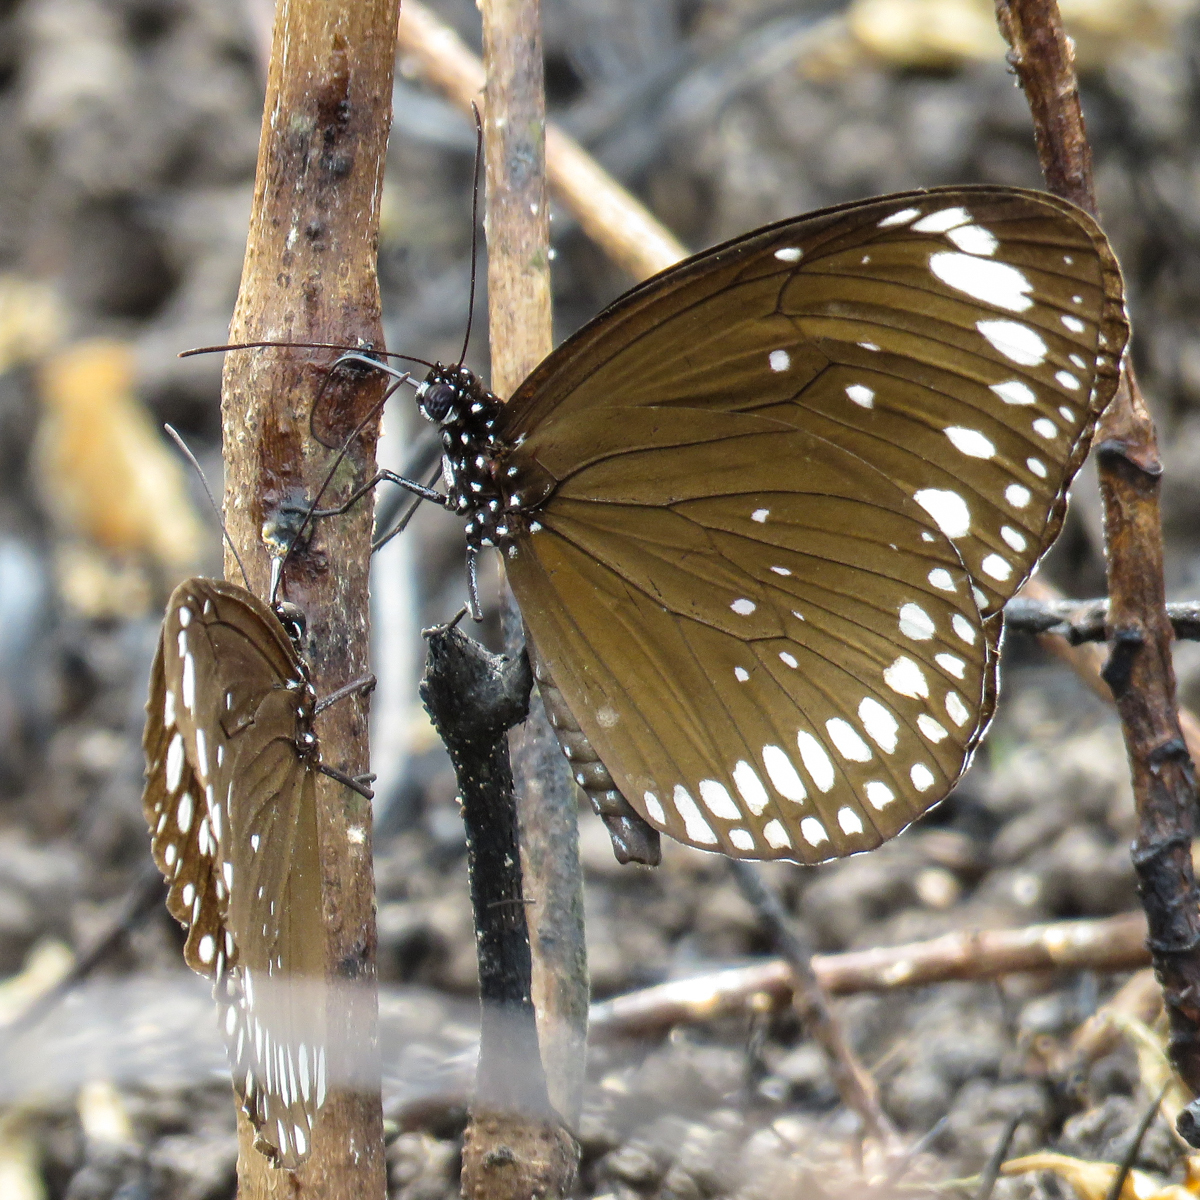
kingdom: Animalia
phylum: Arthropoda
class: Insecta
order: Lepidoptera
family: Nymphalidae
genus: Euploea
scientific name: Euploea crameri
